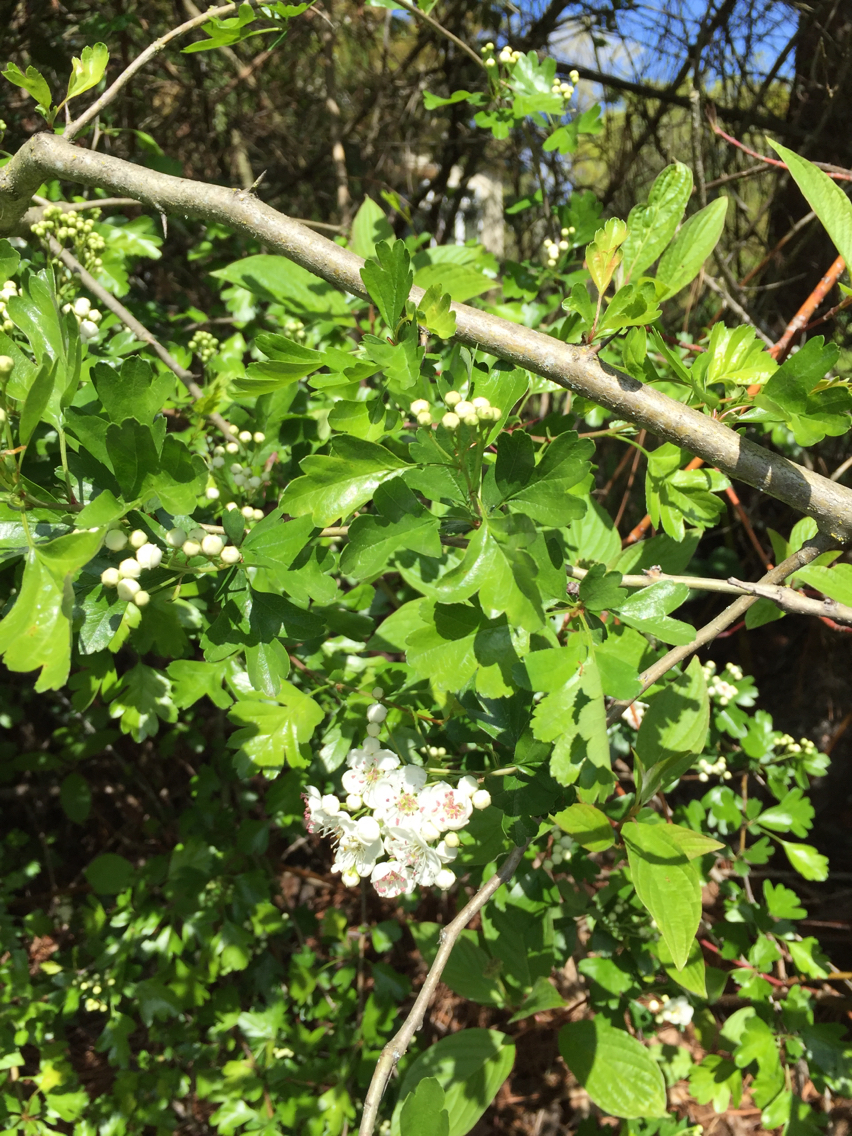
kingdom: Plantae
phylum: Tracheophyta
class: Magnoliopsida
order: Rosales
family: Rosaceae
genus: Crataegus
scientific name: Crataegus monogyna
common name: Hawthorn
